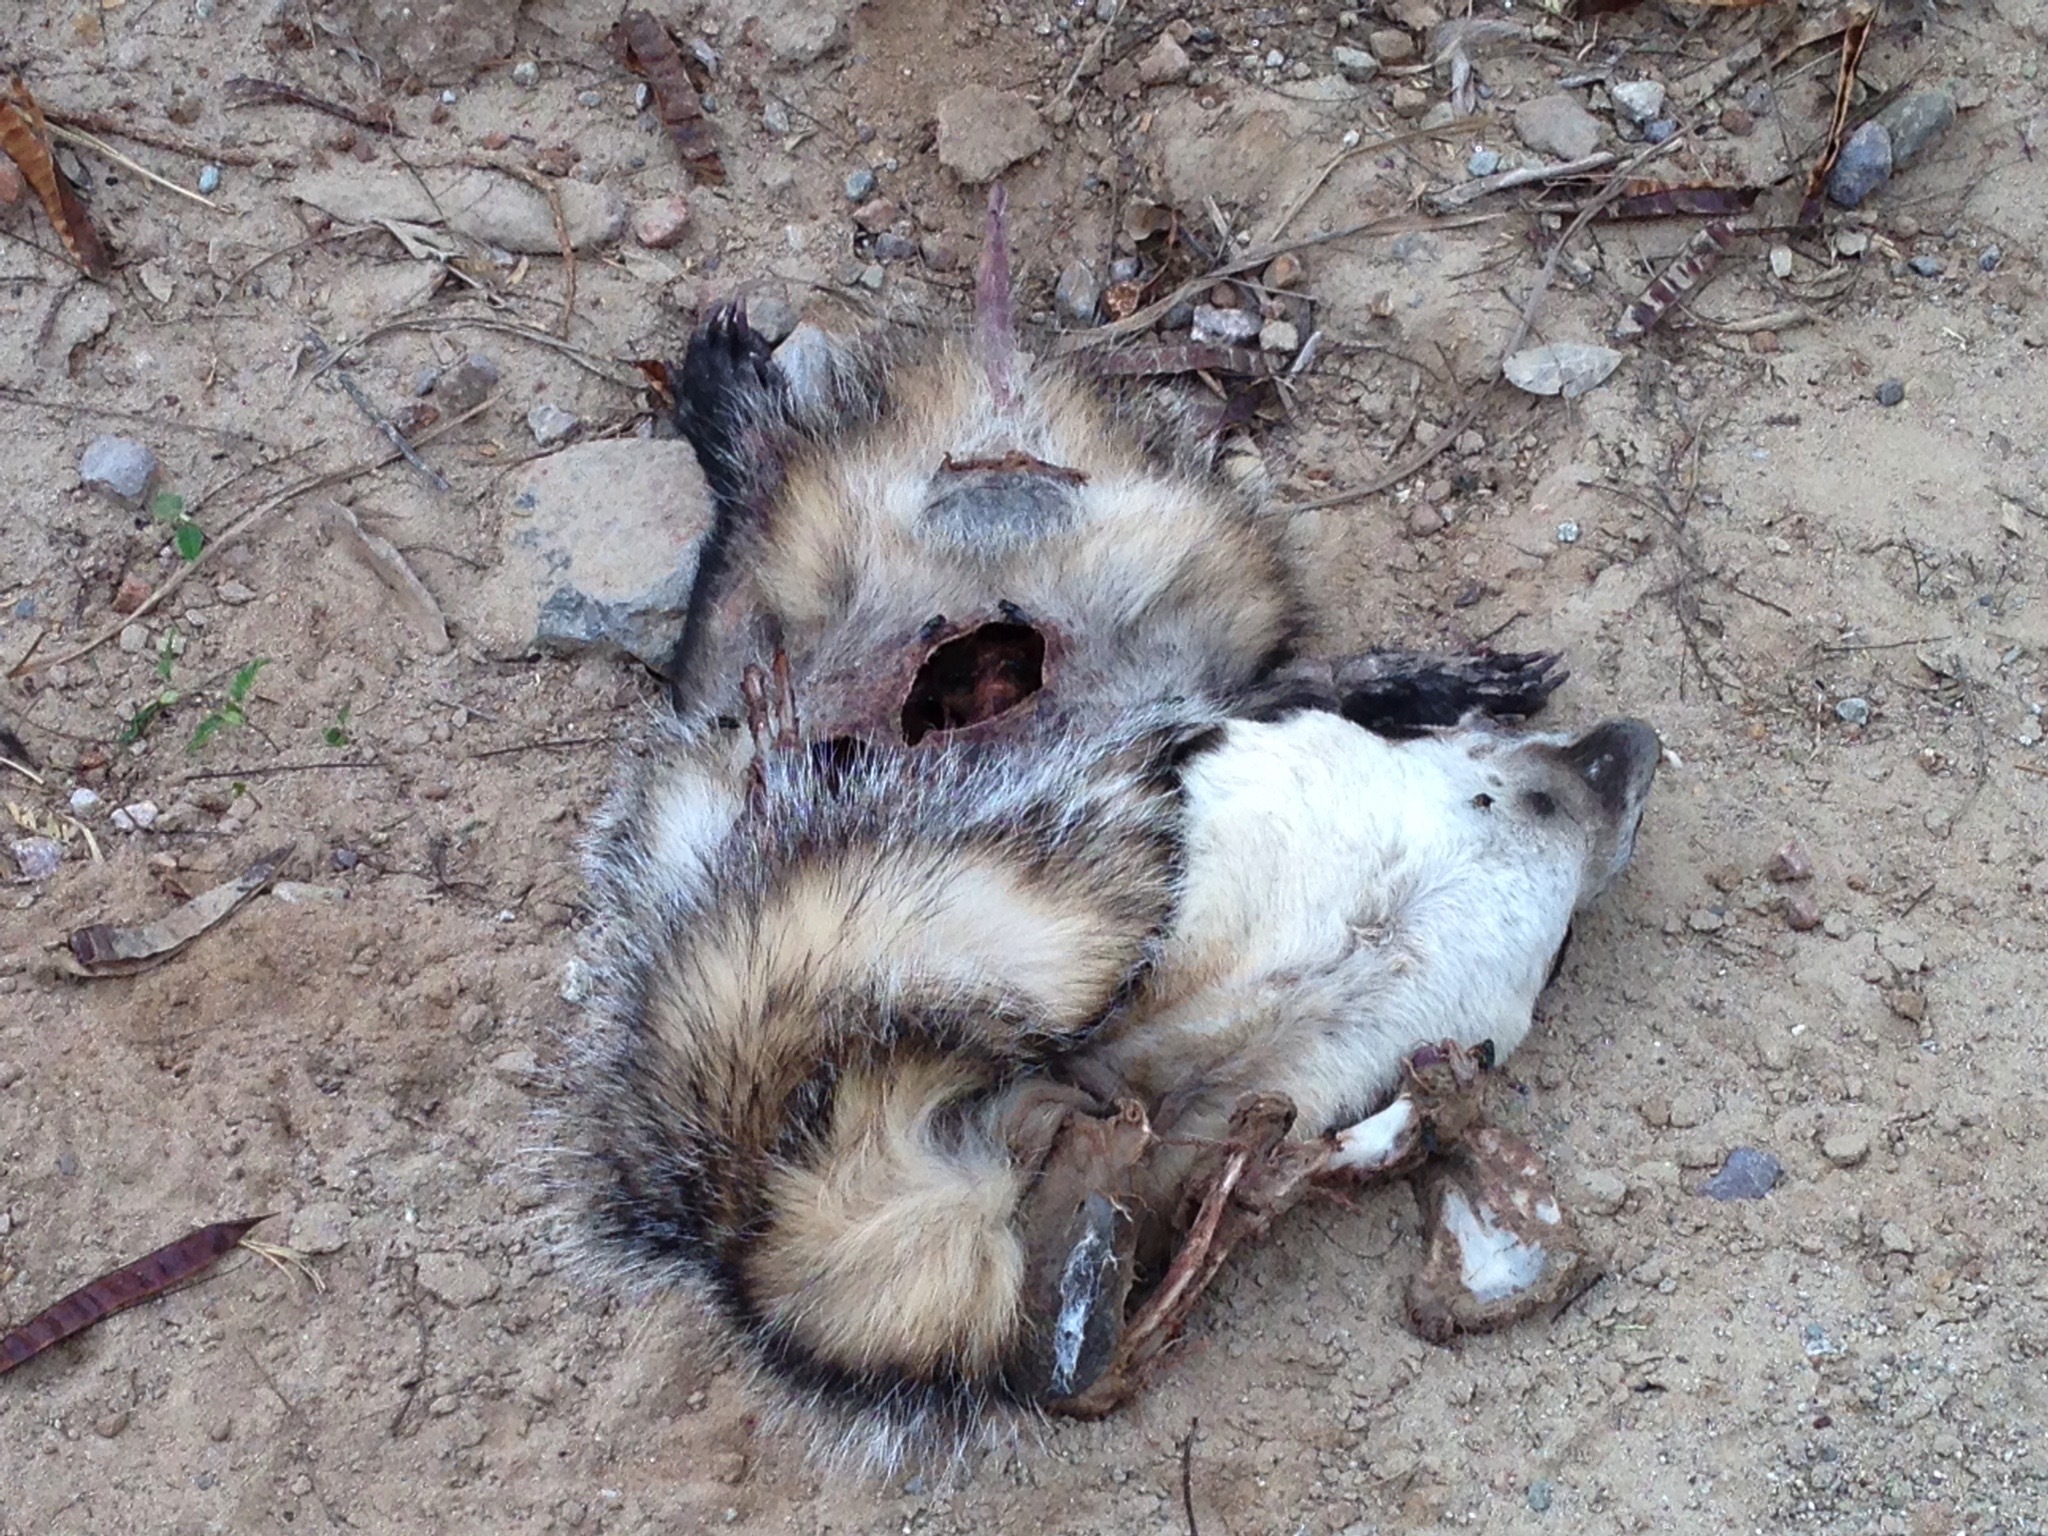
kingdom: Animalia
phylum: Chordata
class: Mammalia
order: Carnivora
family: Mustelidae
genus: Taxidea
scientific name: Taxidea taxus
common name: American badger
